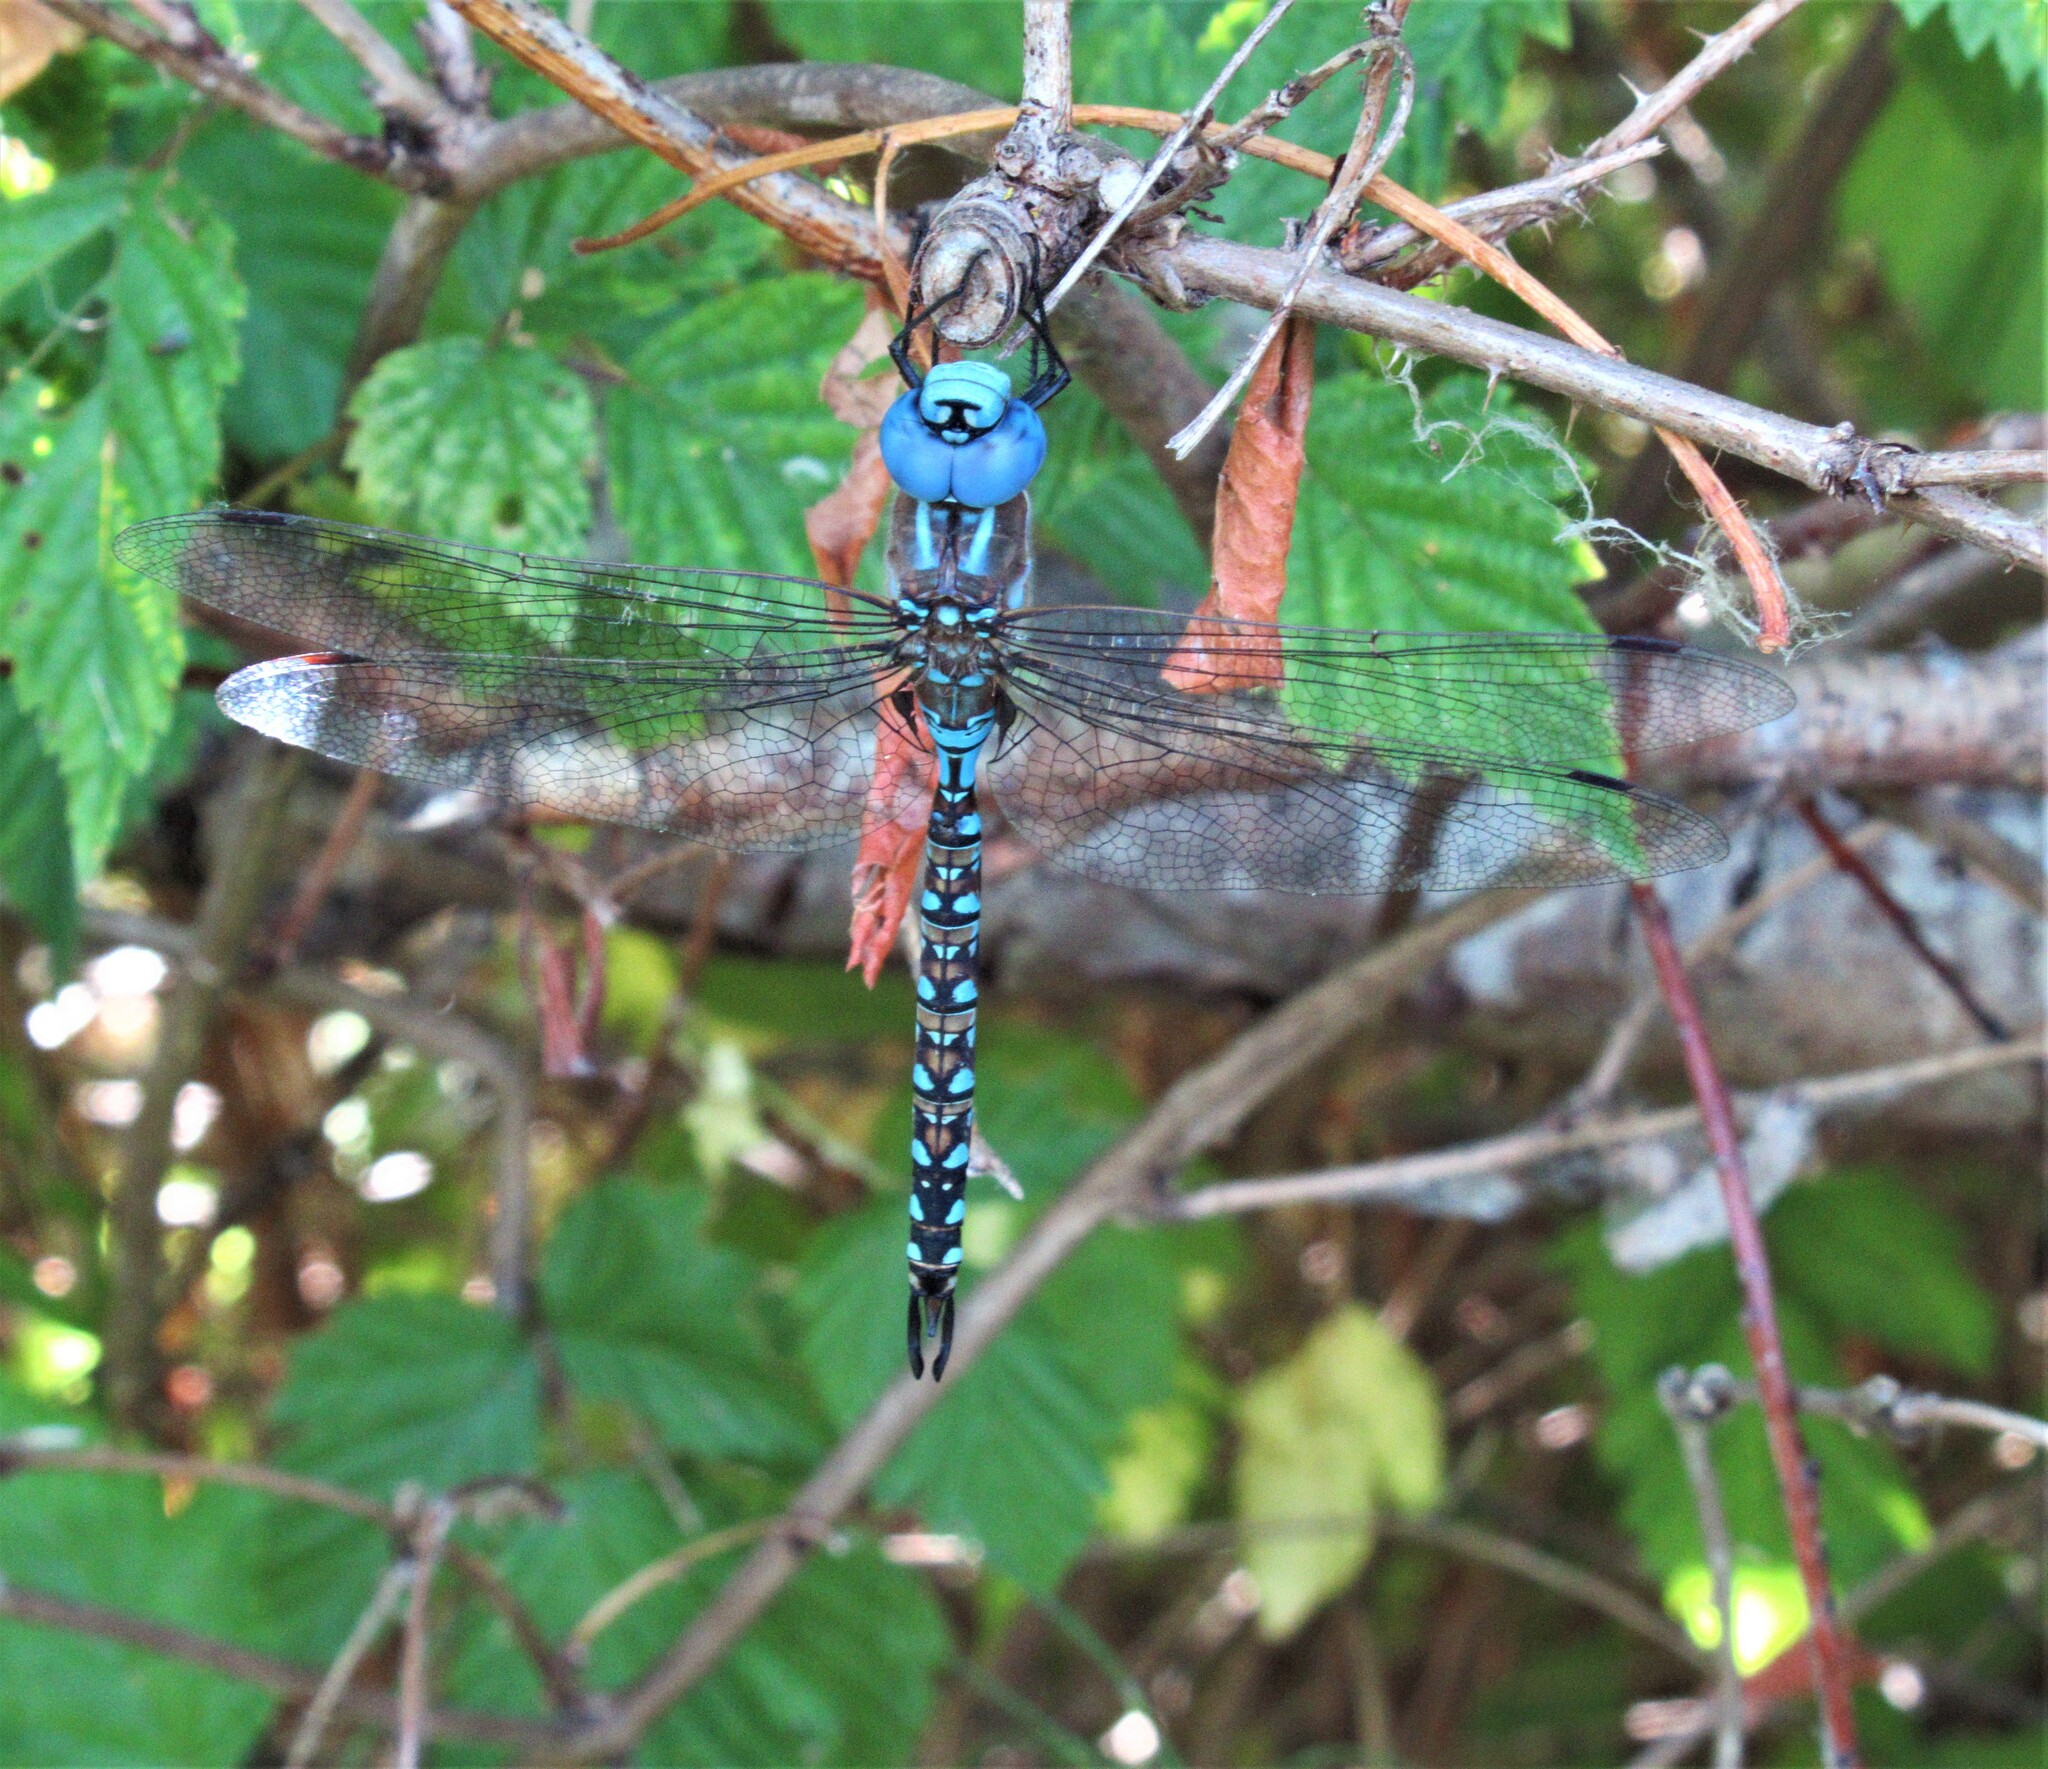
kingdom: Animalia
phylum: Arthropoda
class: Insecta
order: Odonata
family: Aeshnidae
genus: Rhionaeschna
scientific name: Rhionaeschna multicolor
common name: Blue-eyed darner
